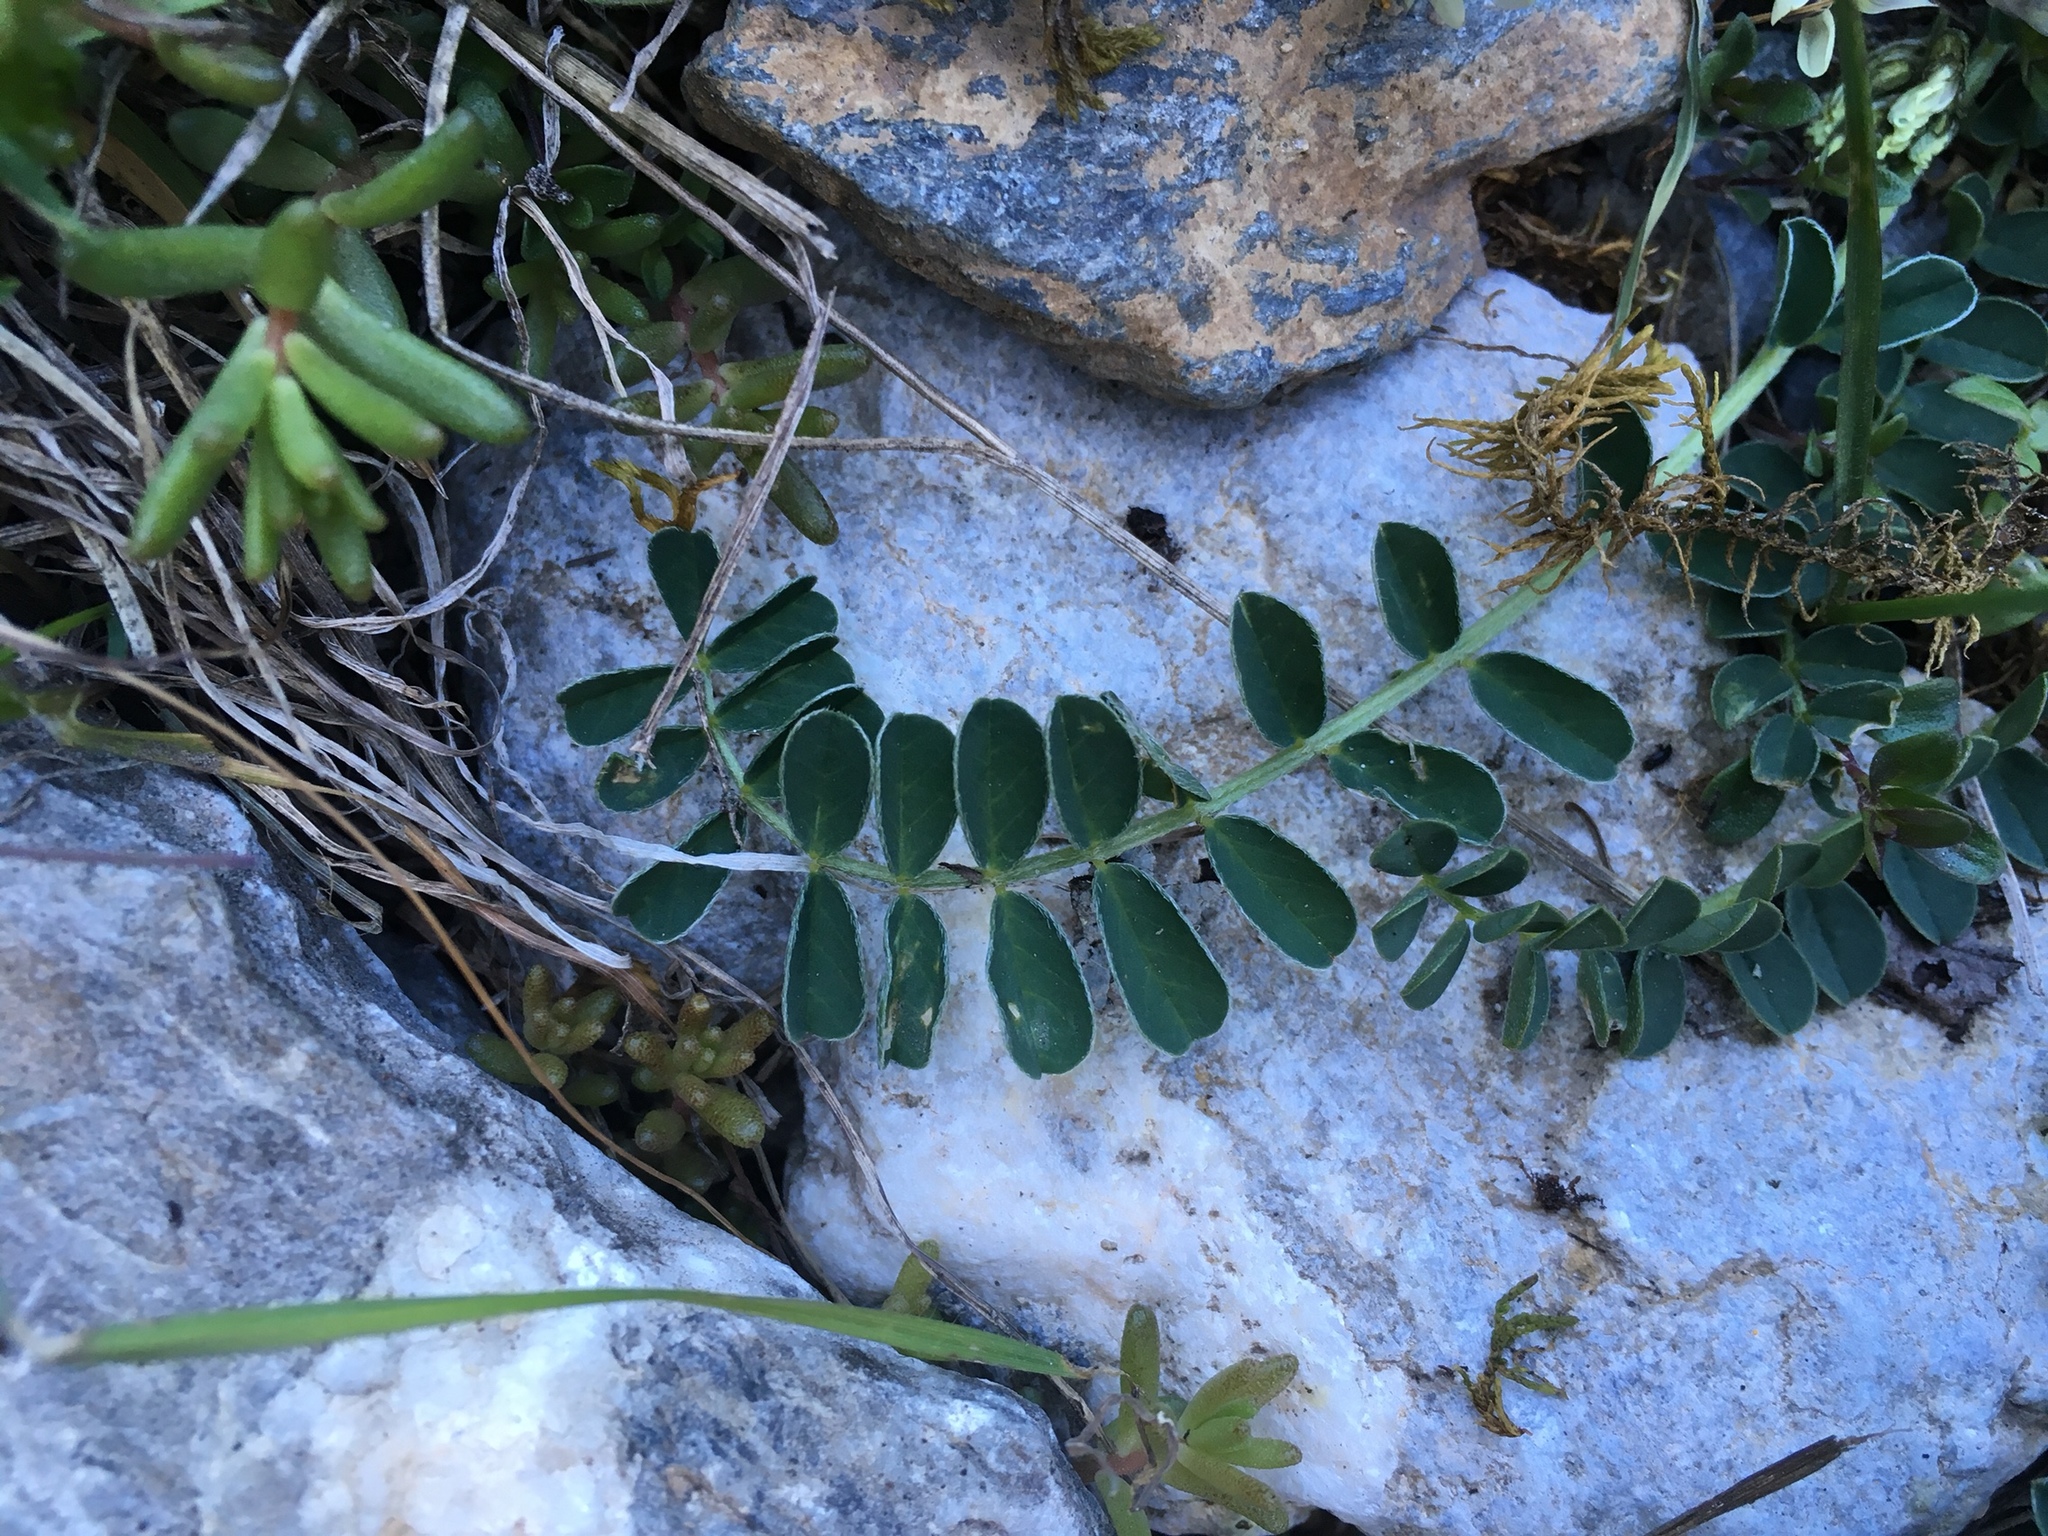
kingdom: Plantae
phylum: Tracheophyta
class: Magnoliopsida
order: Fabales
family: Fabaceae
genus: Astragalus
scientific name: Astragalus depressus
